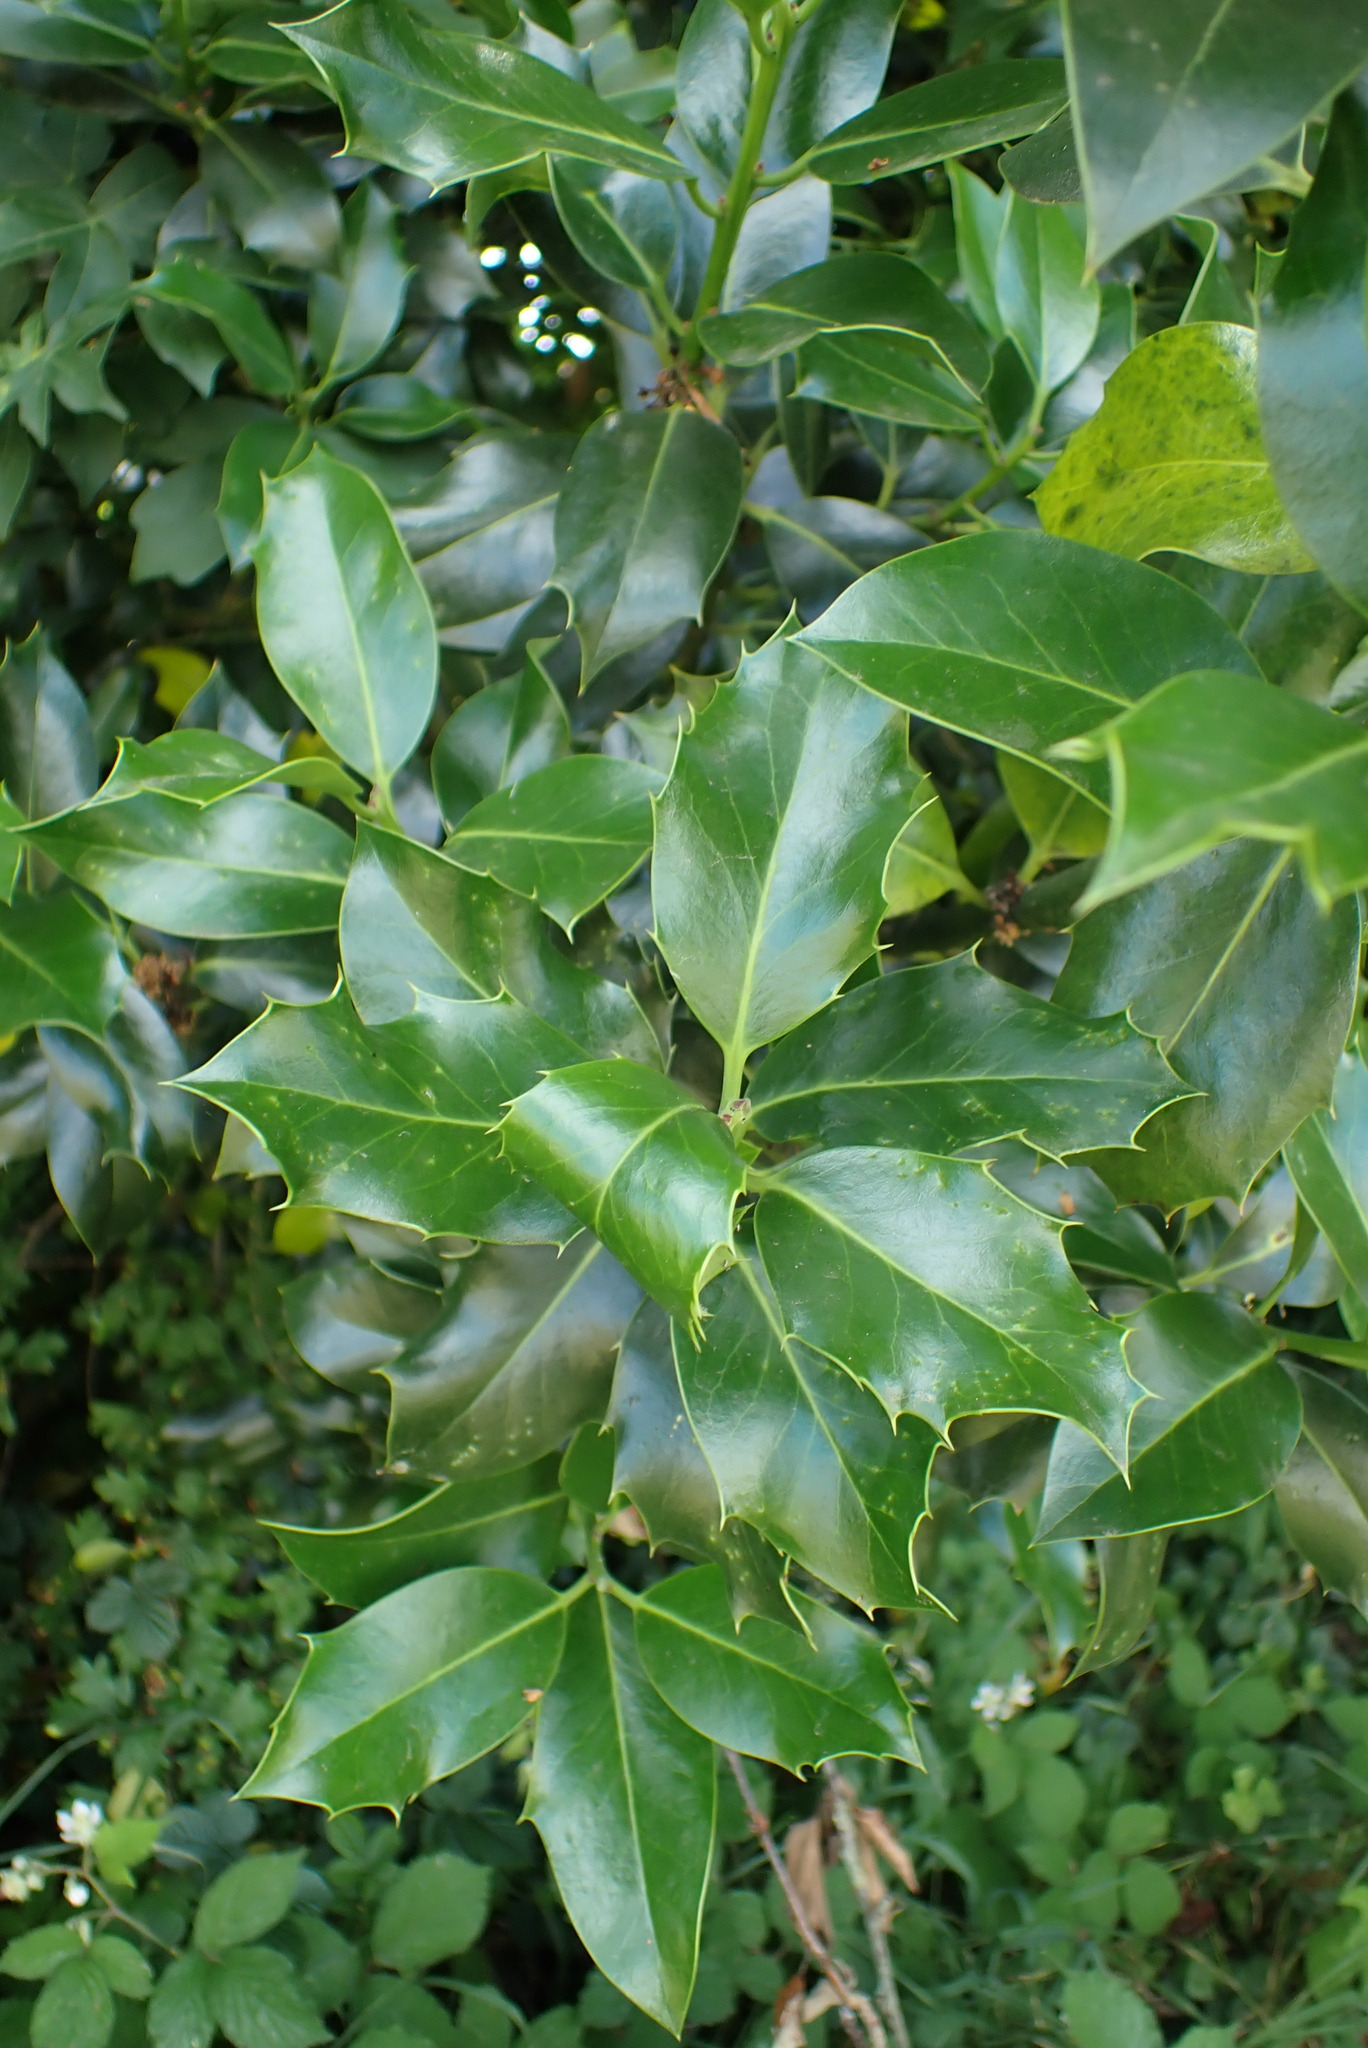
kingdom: Plantae
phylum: Tracheophyta
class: Magnoliopsida
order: Aquifoliales
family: Aquifoliaceae
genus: Ilex
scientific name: Ilex aquifolium
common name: English holly
